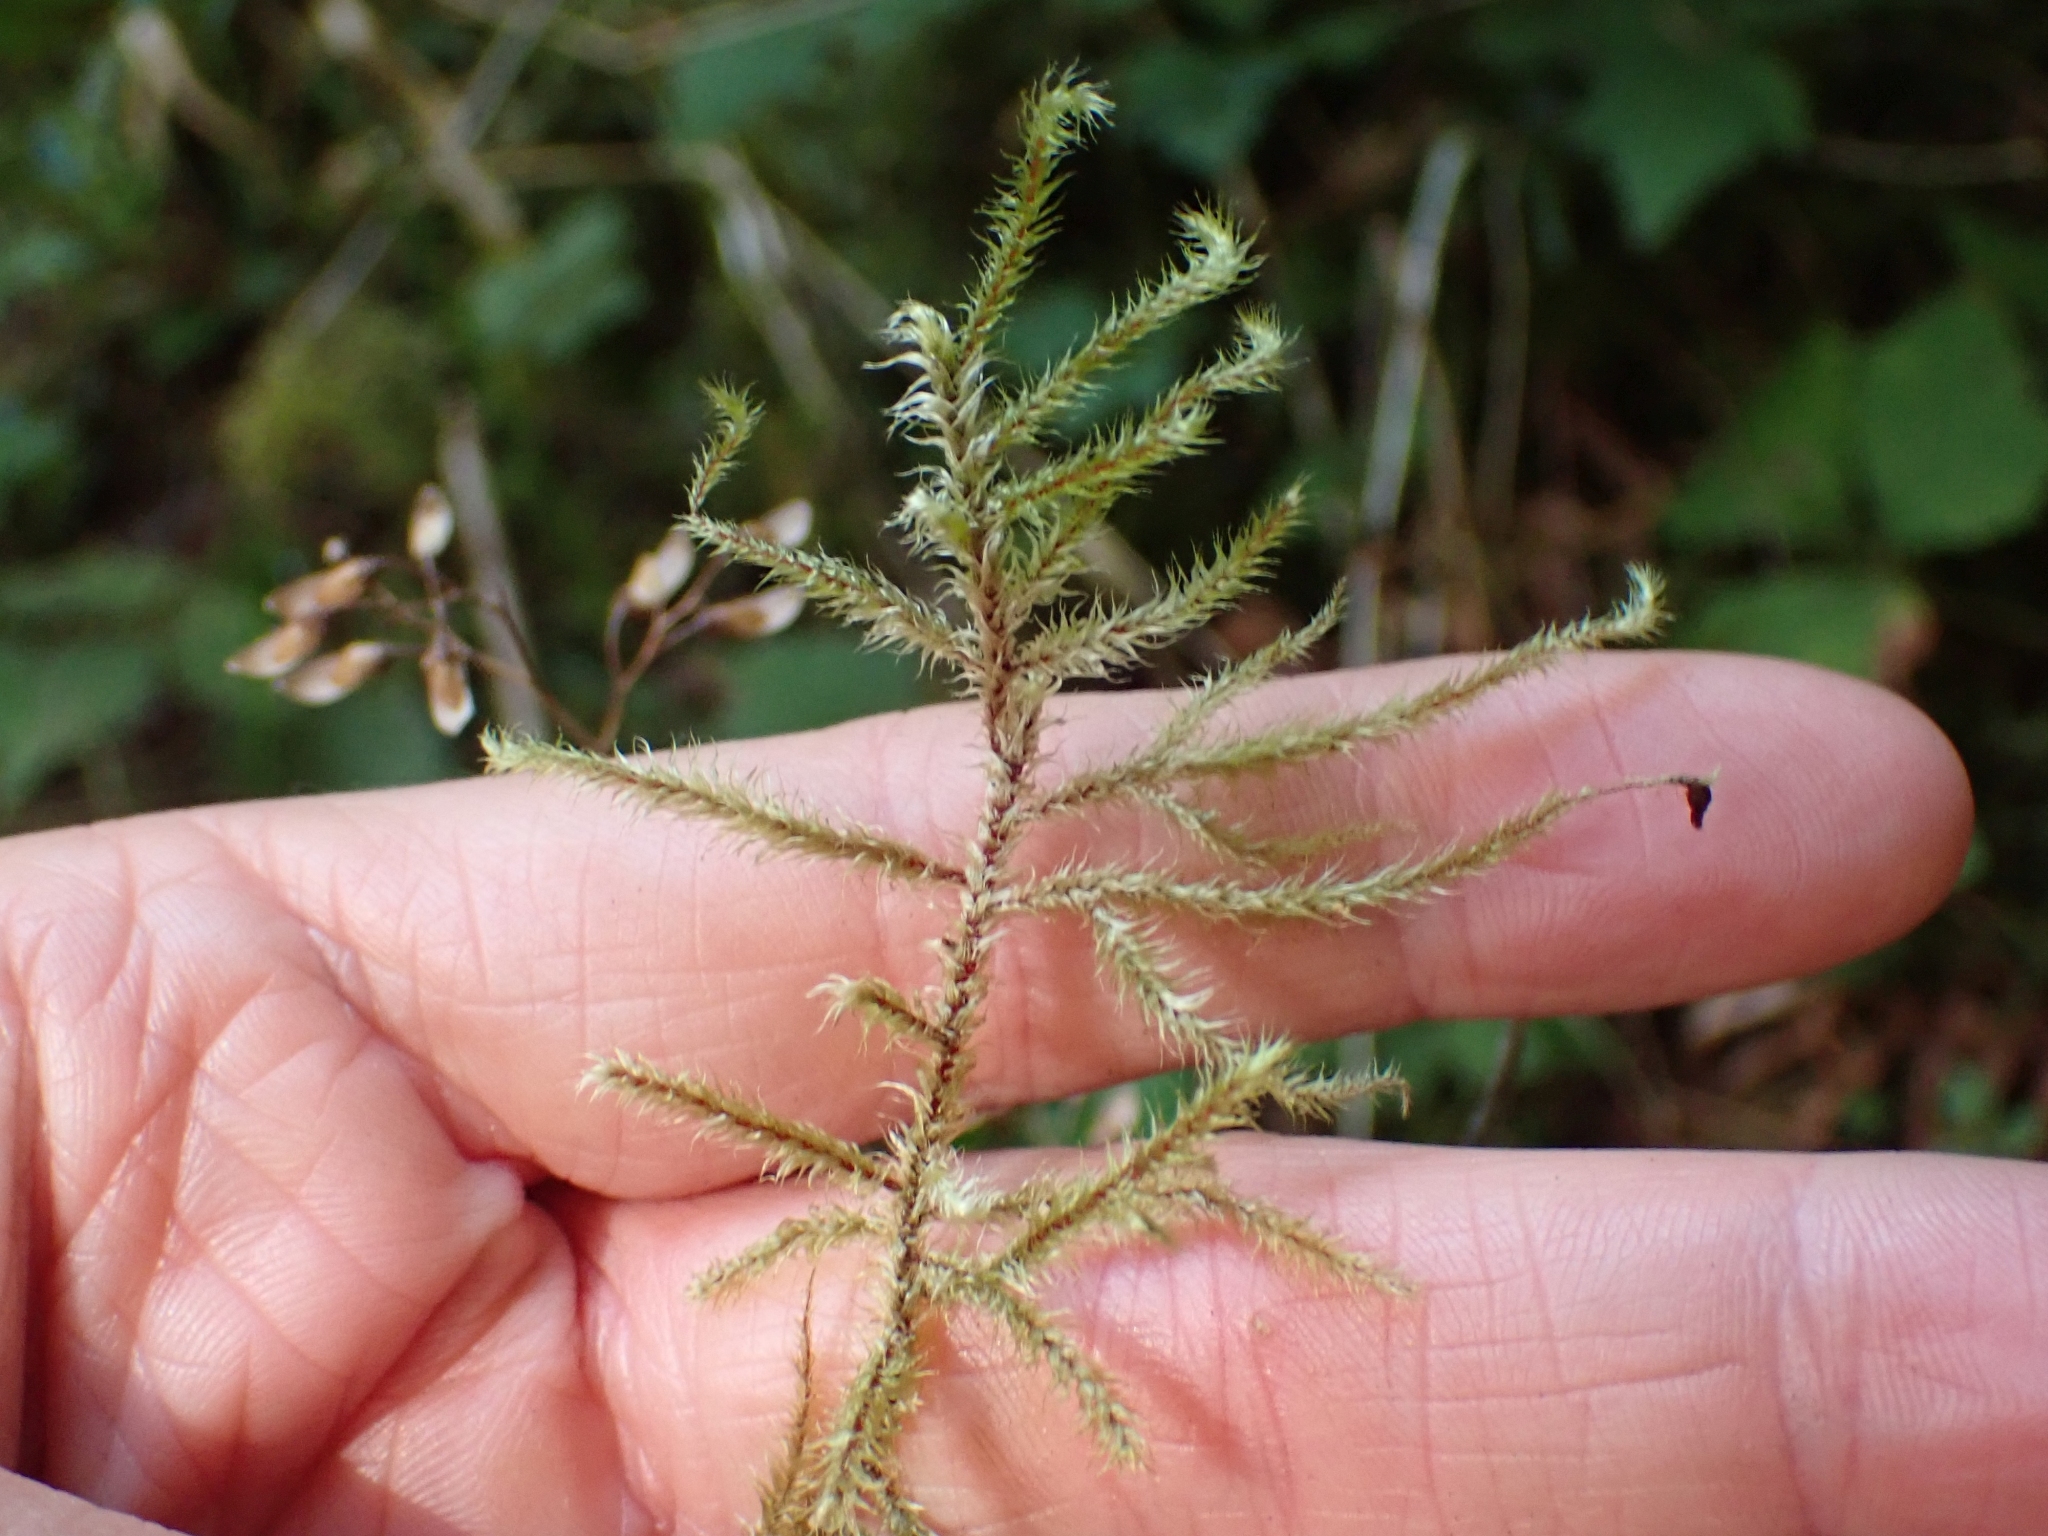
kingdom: Plantae
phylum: Bryophyta
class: Bryopsida
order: Hypnales
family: Hylocomiaceae
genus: Rhytidiadelphus
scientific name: Rhytidiadelphus loreus
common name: Lanky moss
